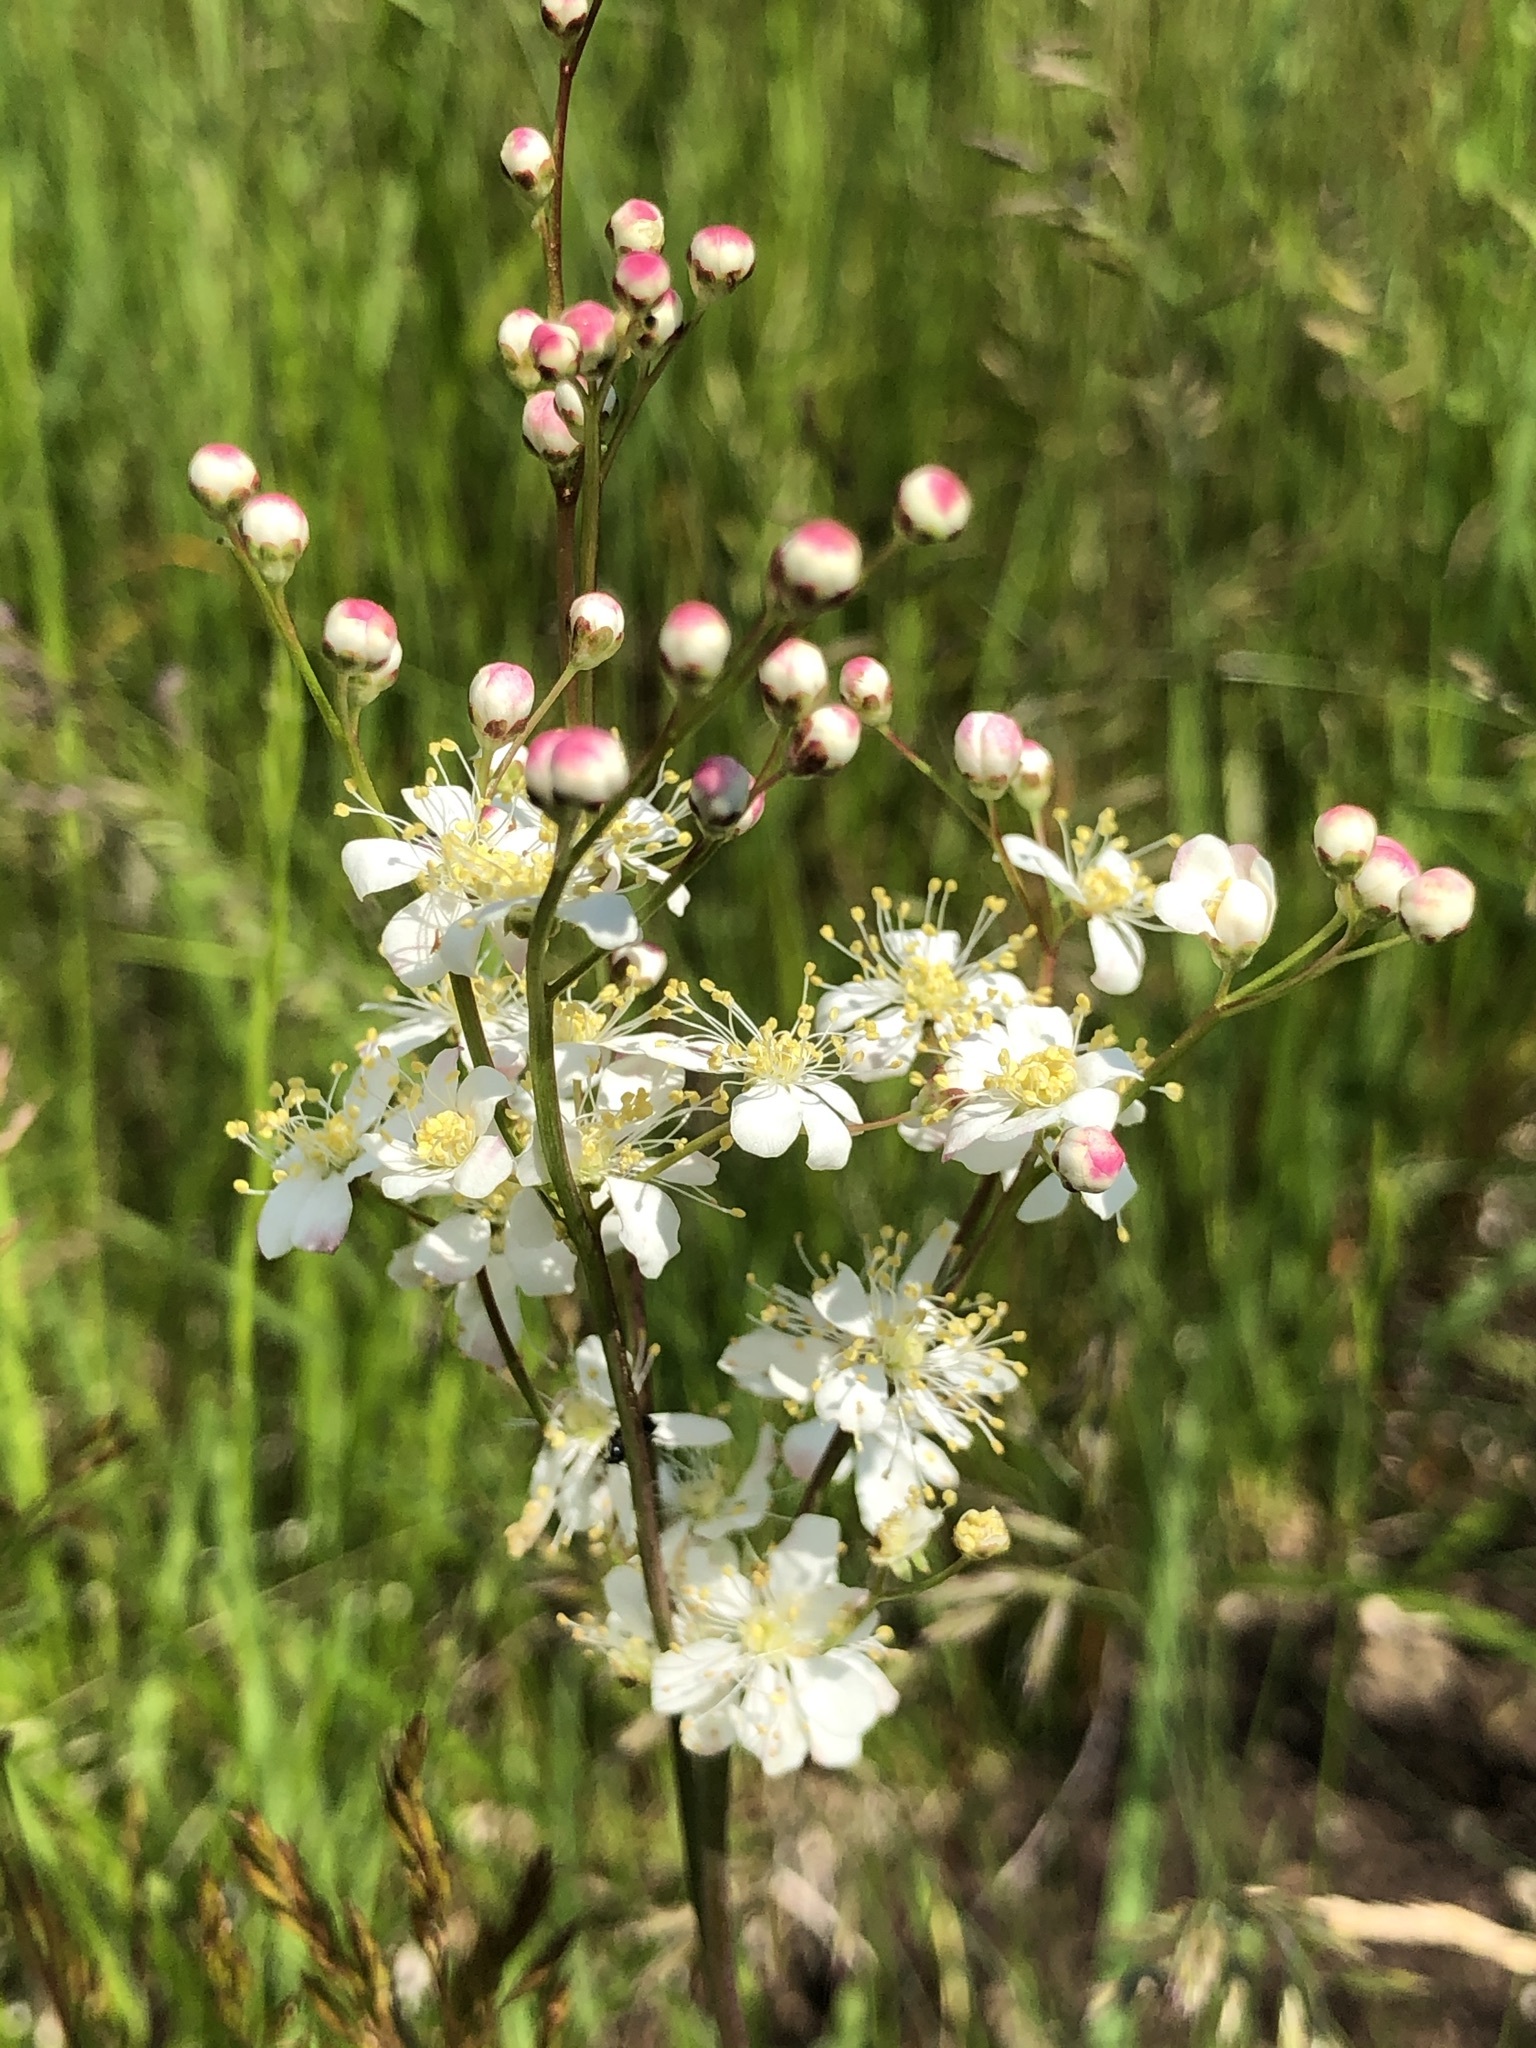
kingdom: Plantae
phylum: Tracheophyta
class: Magnoliopsida
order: Rosales
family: Rosaceae
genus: Filipendula
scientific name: Filipendula vulgaris
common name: Dropwort
